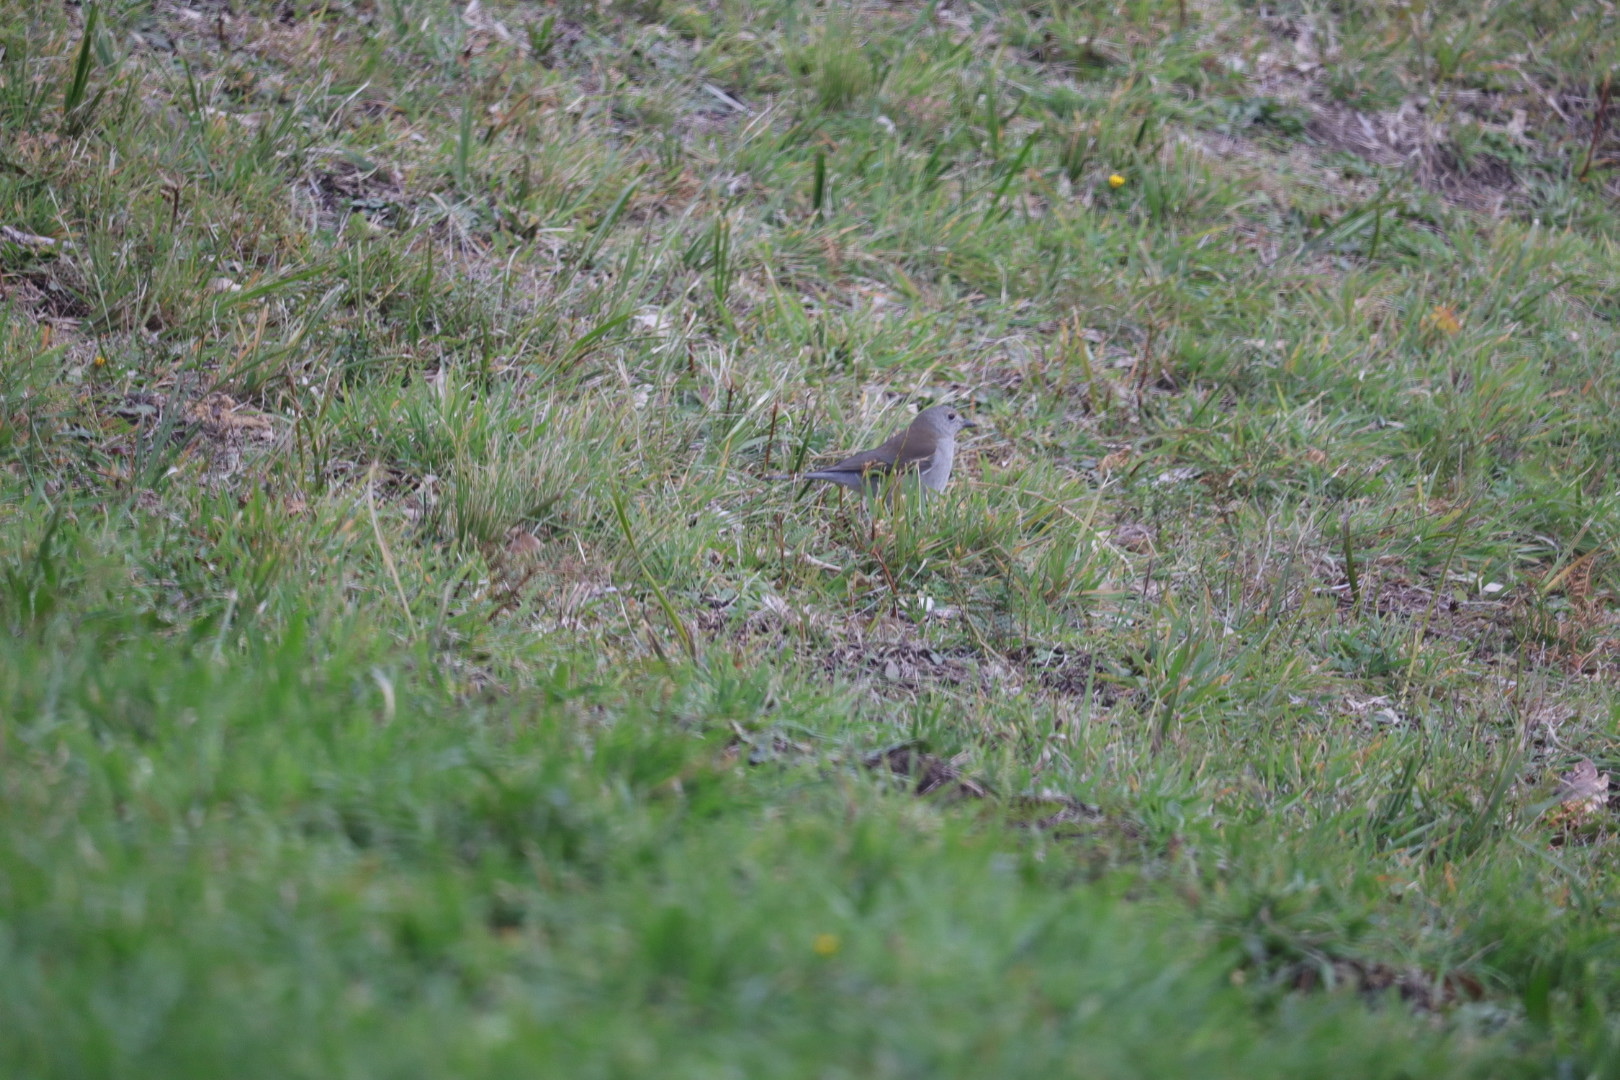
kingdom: Animalia
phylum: Chordata
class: Aves
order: Passeriformes
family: Pachycephalidae
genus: Colluricincla
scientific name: Colluricincla harmonica
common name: Grey shrikethrush
